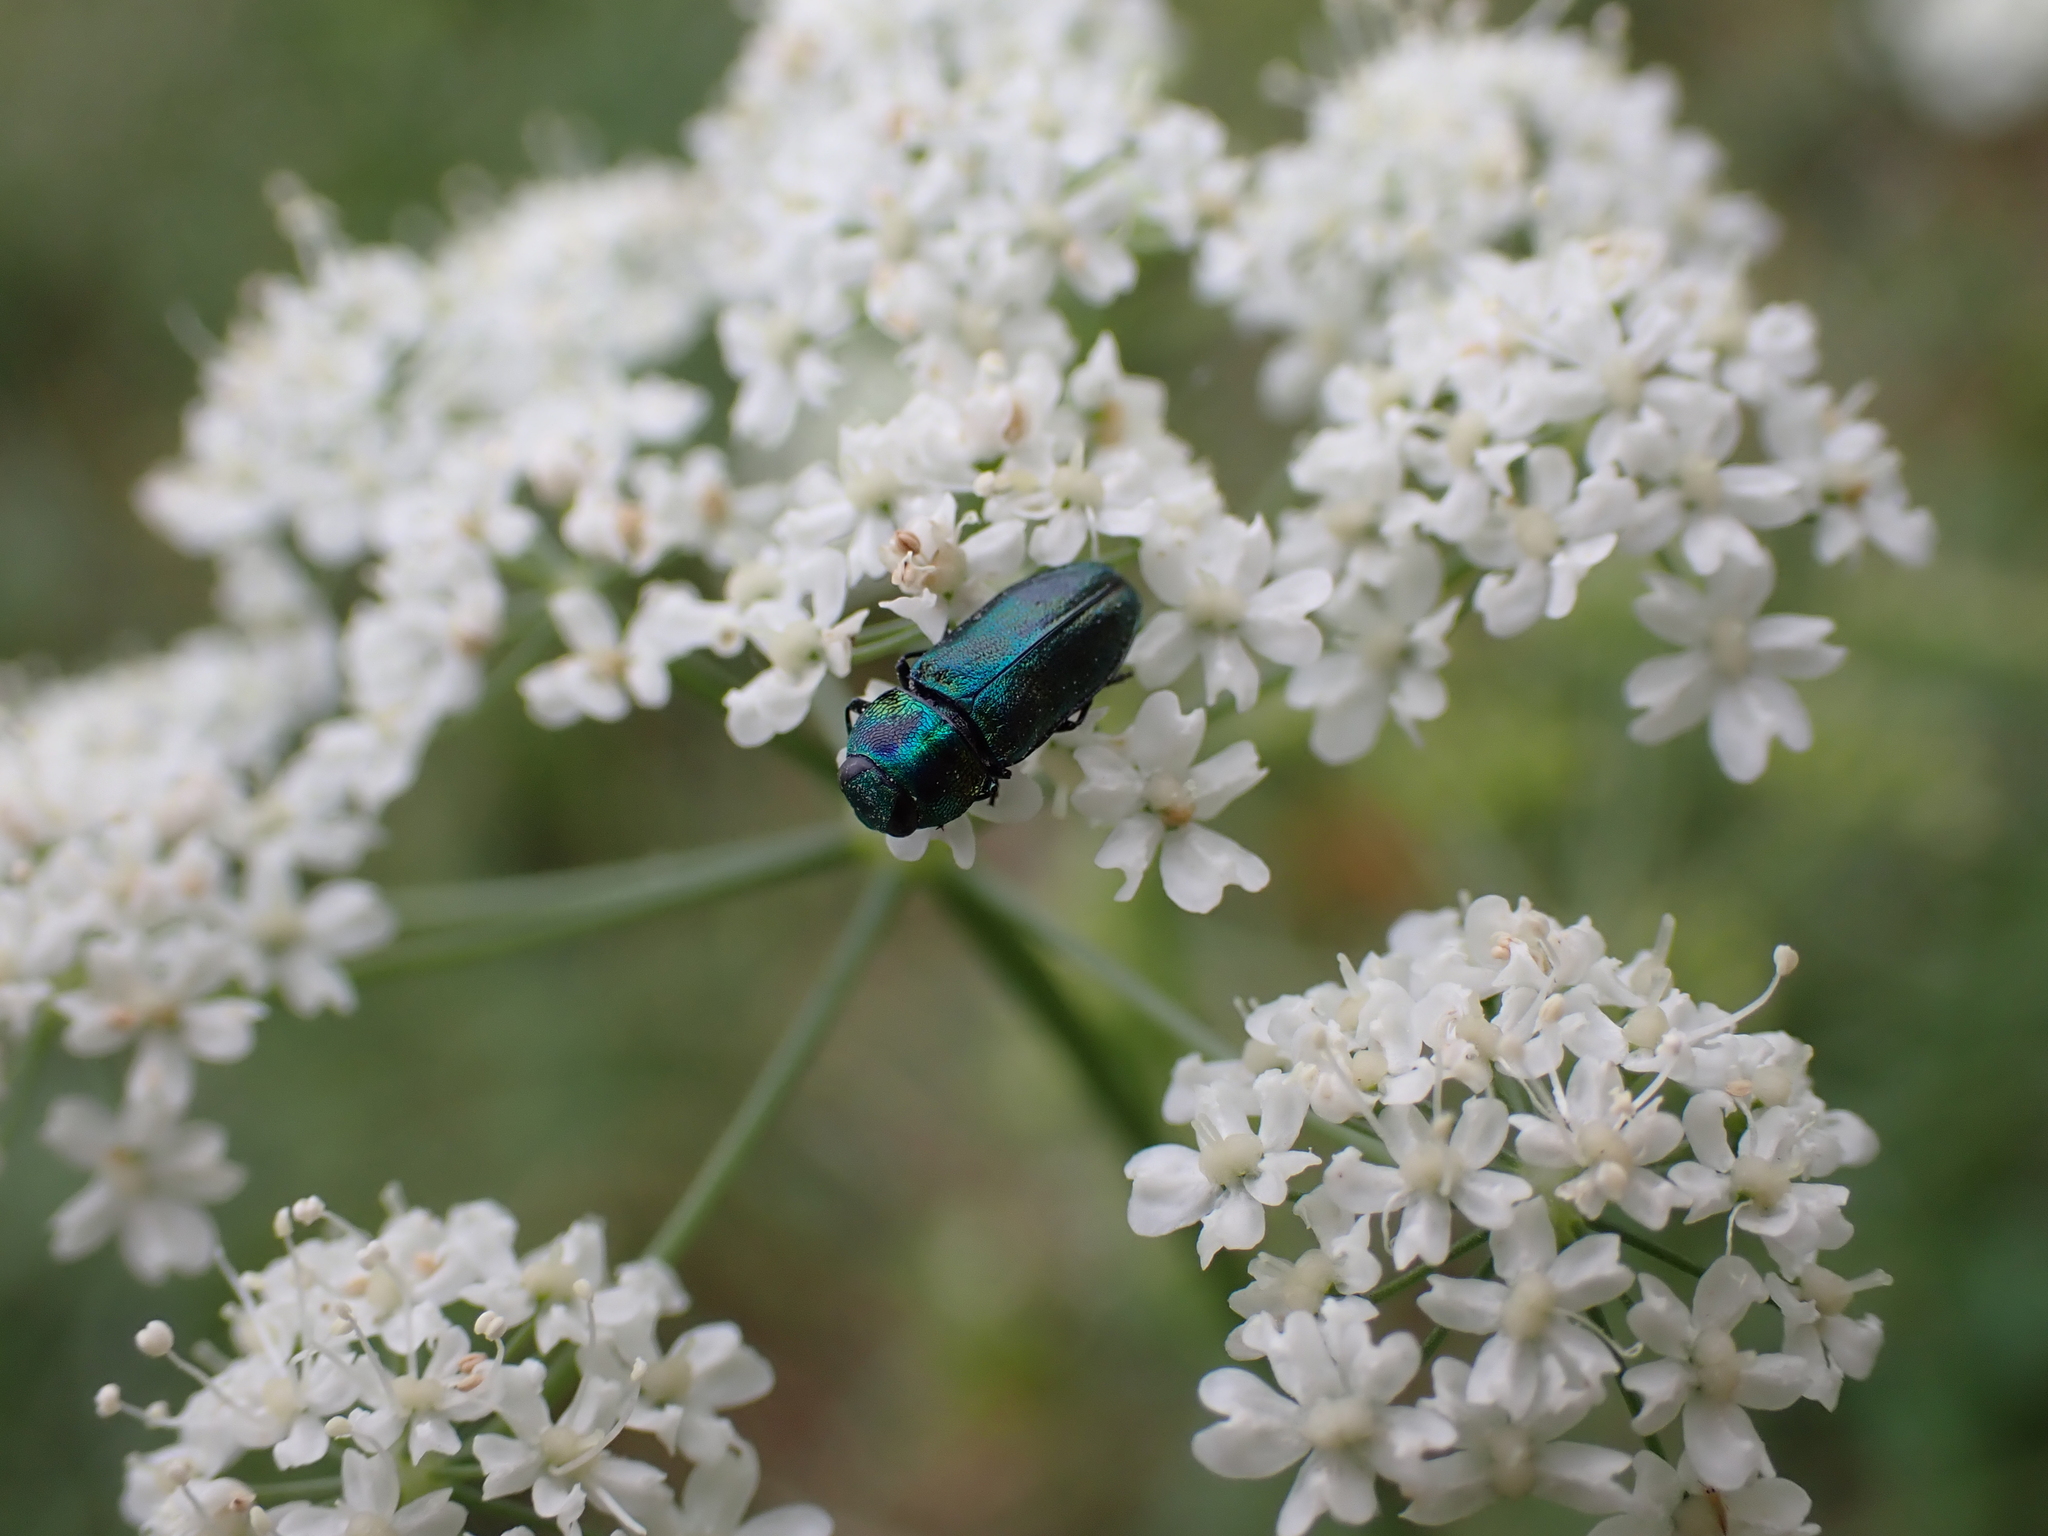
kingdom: Animalia
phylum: Arthropoda
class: Insecta
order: Coleoptera
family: Buprestidae
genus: Anthaxia
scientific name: Anthaxia podolica
